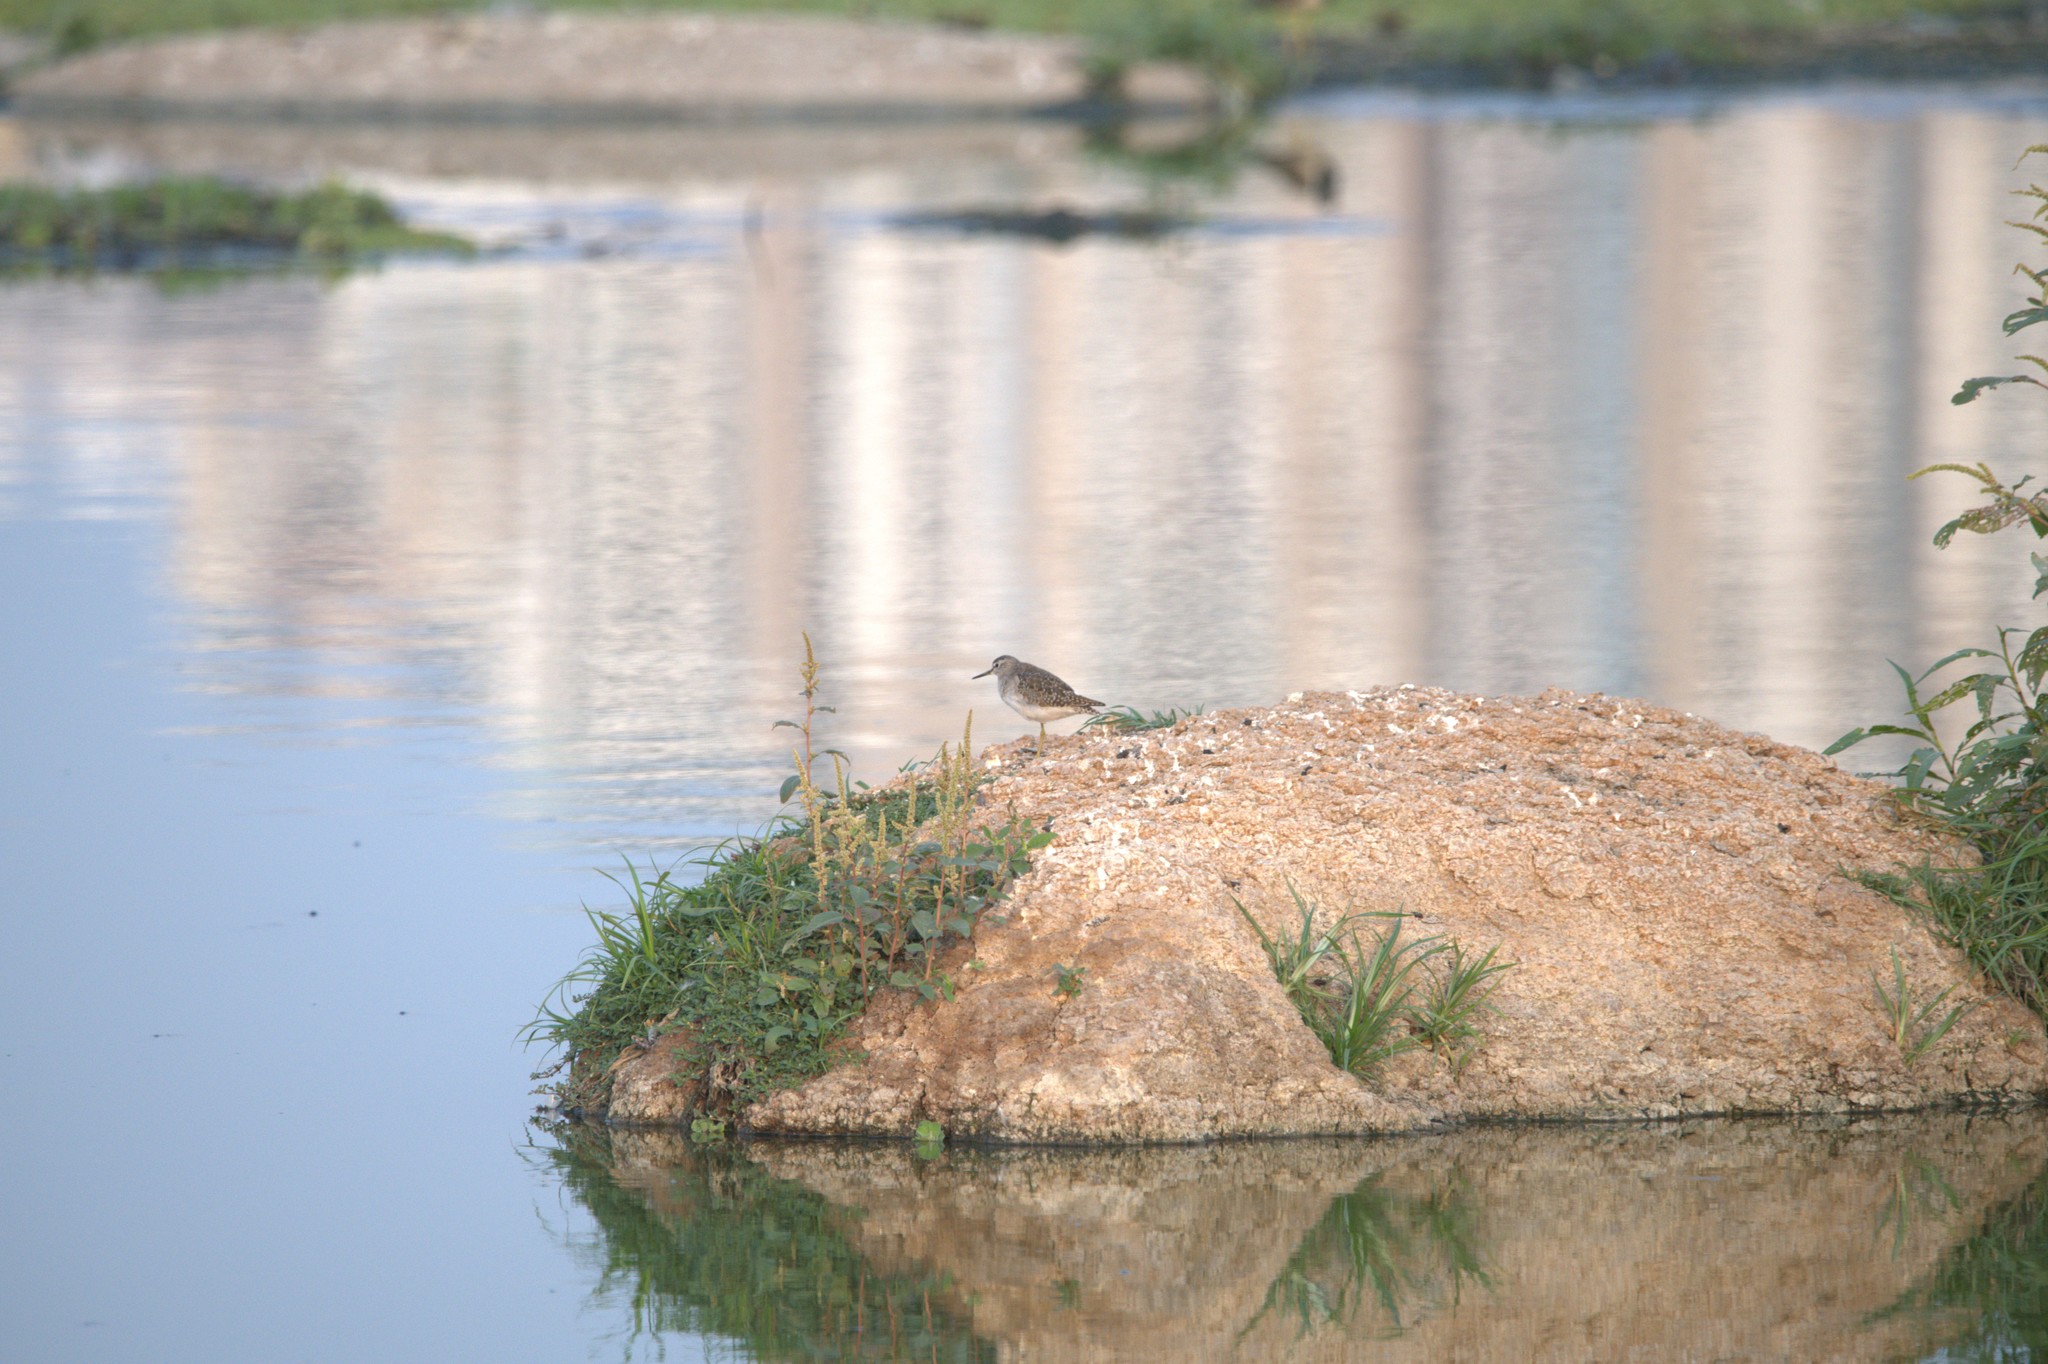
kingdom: Animalia
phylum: Chordata
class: Aves
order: Charadriiformes
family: Scolopacidae
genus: Tringa
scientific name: Tringa glareola
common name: Wood sandpiper
